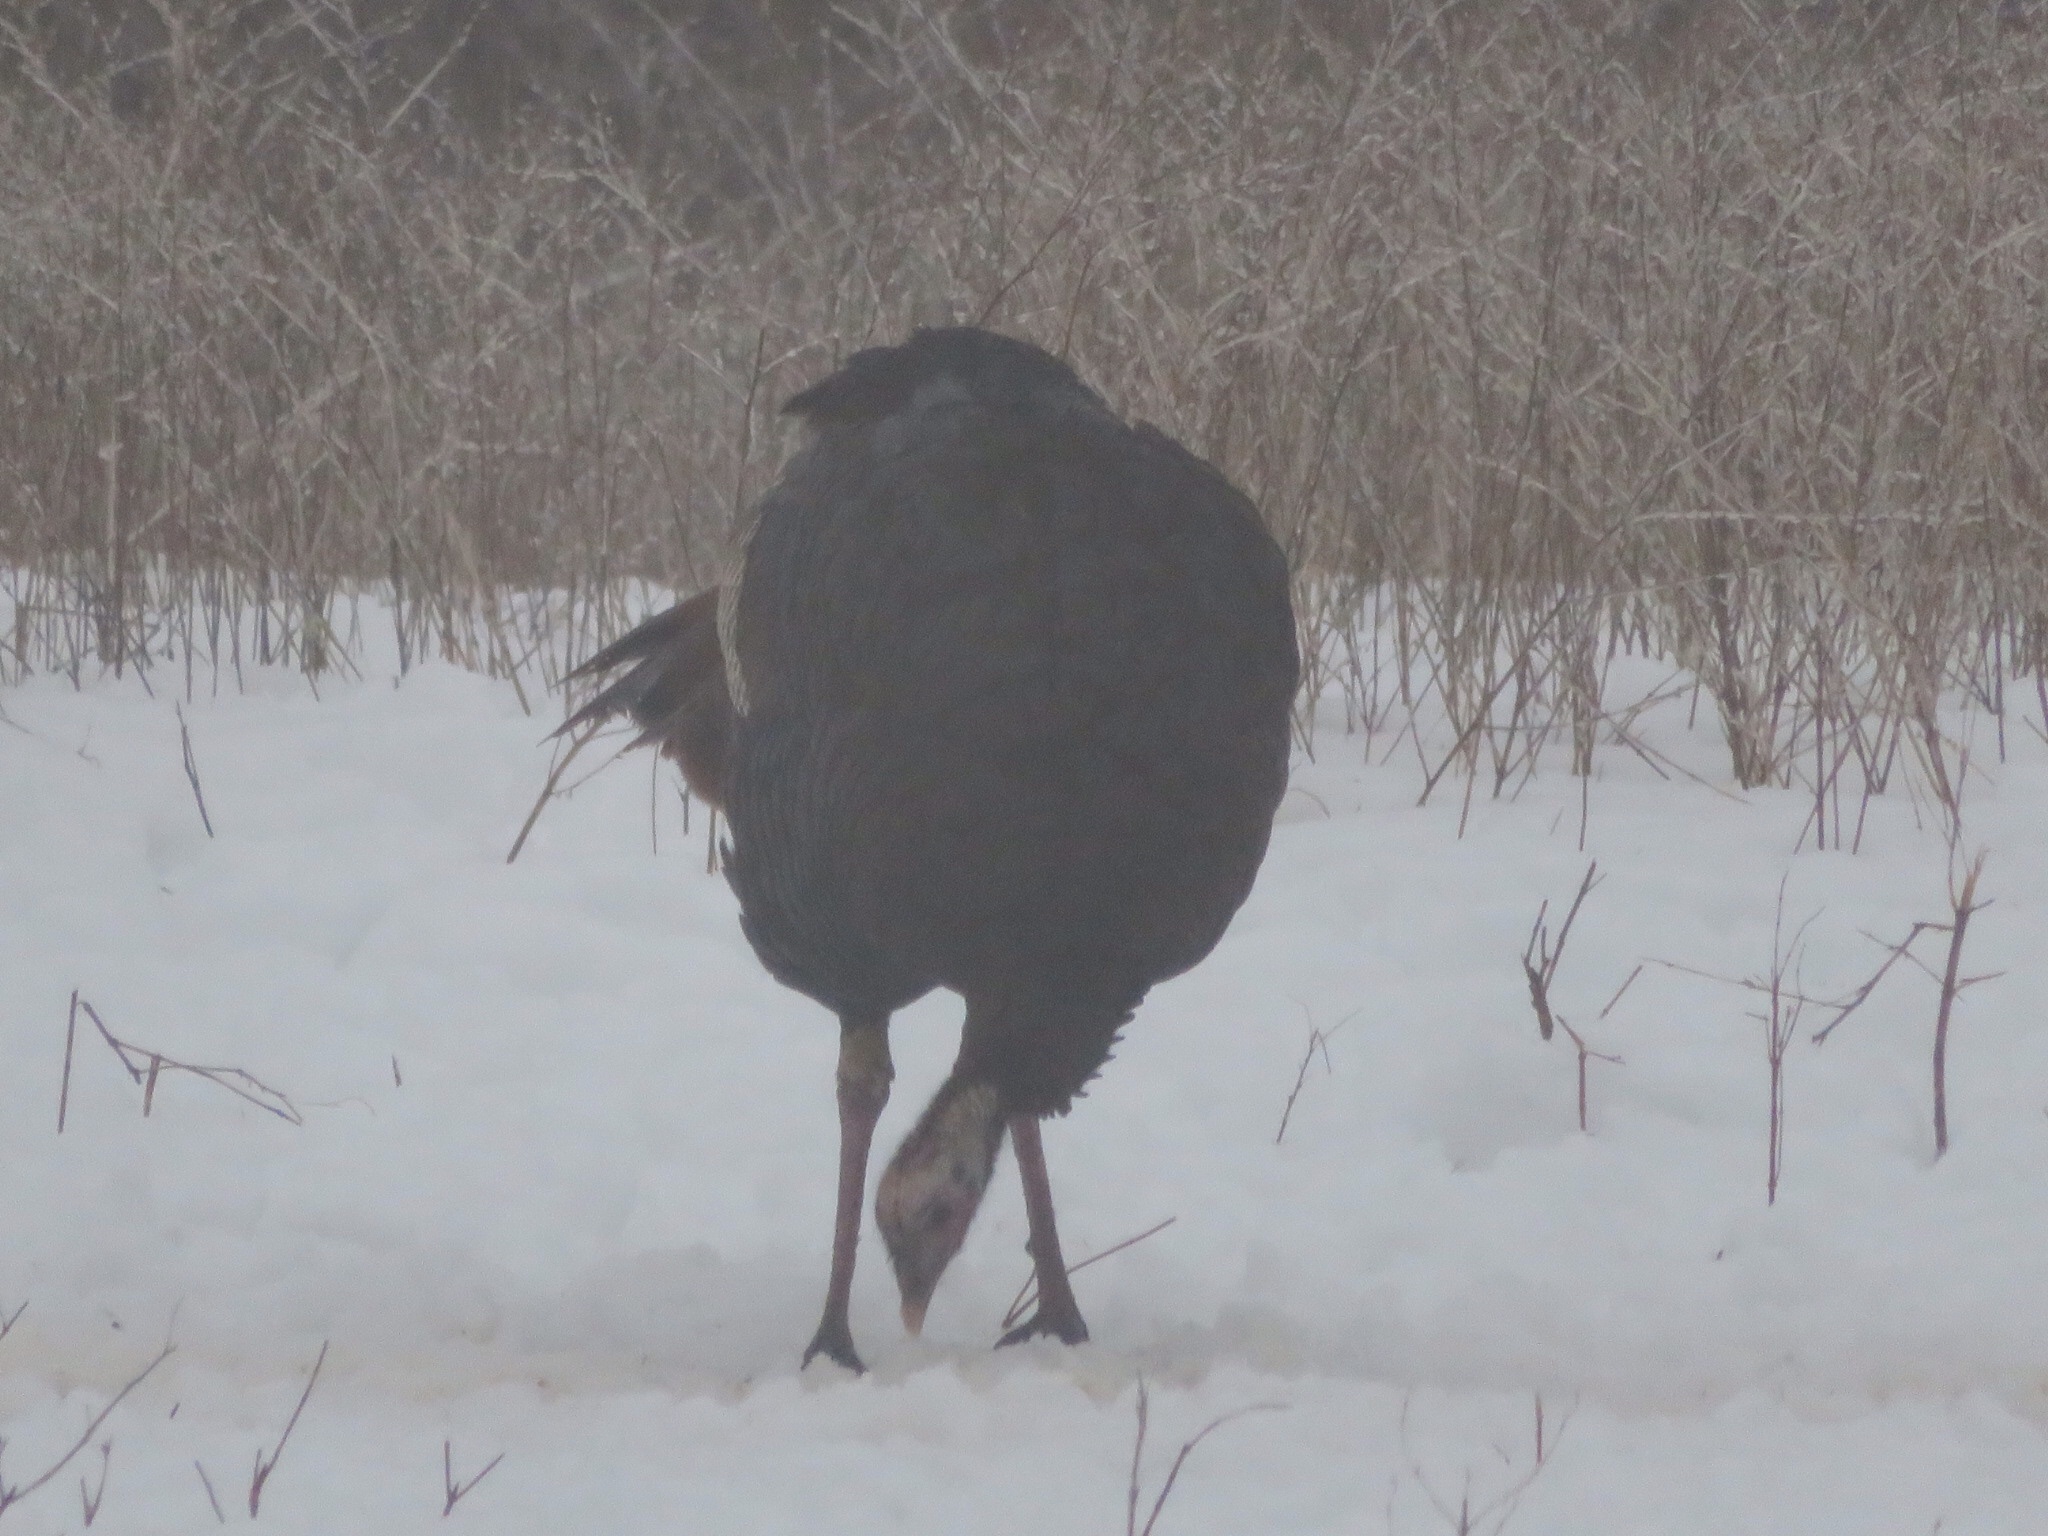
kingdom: Animalia
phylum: Chordata
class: Aves
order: Galliformes
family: Phasianidae
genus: Meleagris
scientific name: Meleagris gallopavo
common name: Wild turkey
